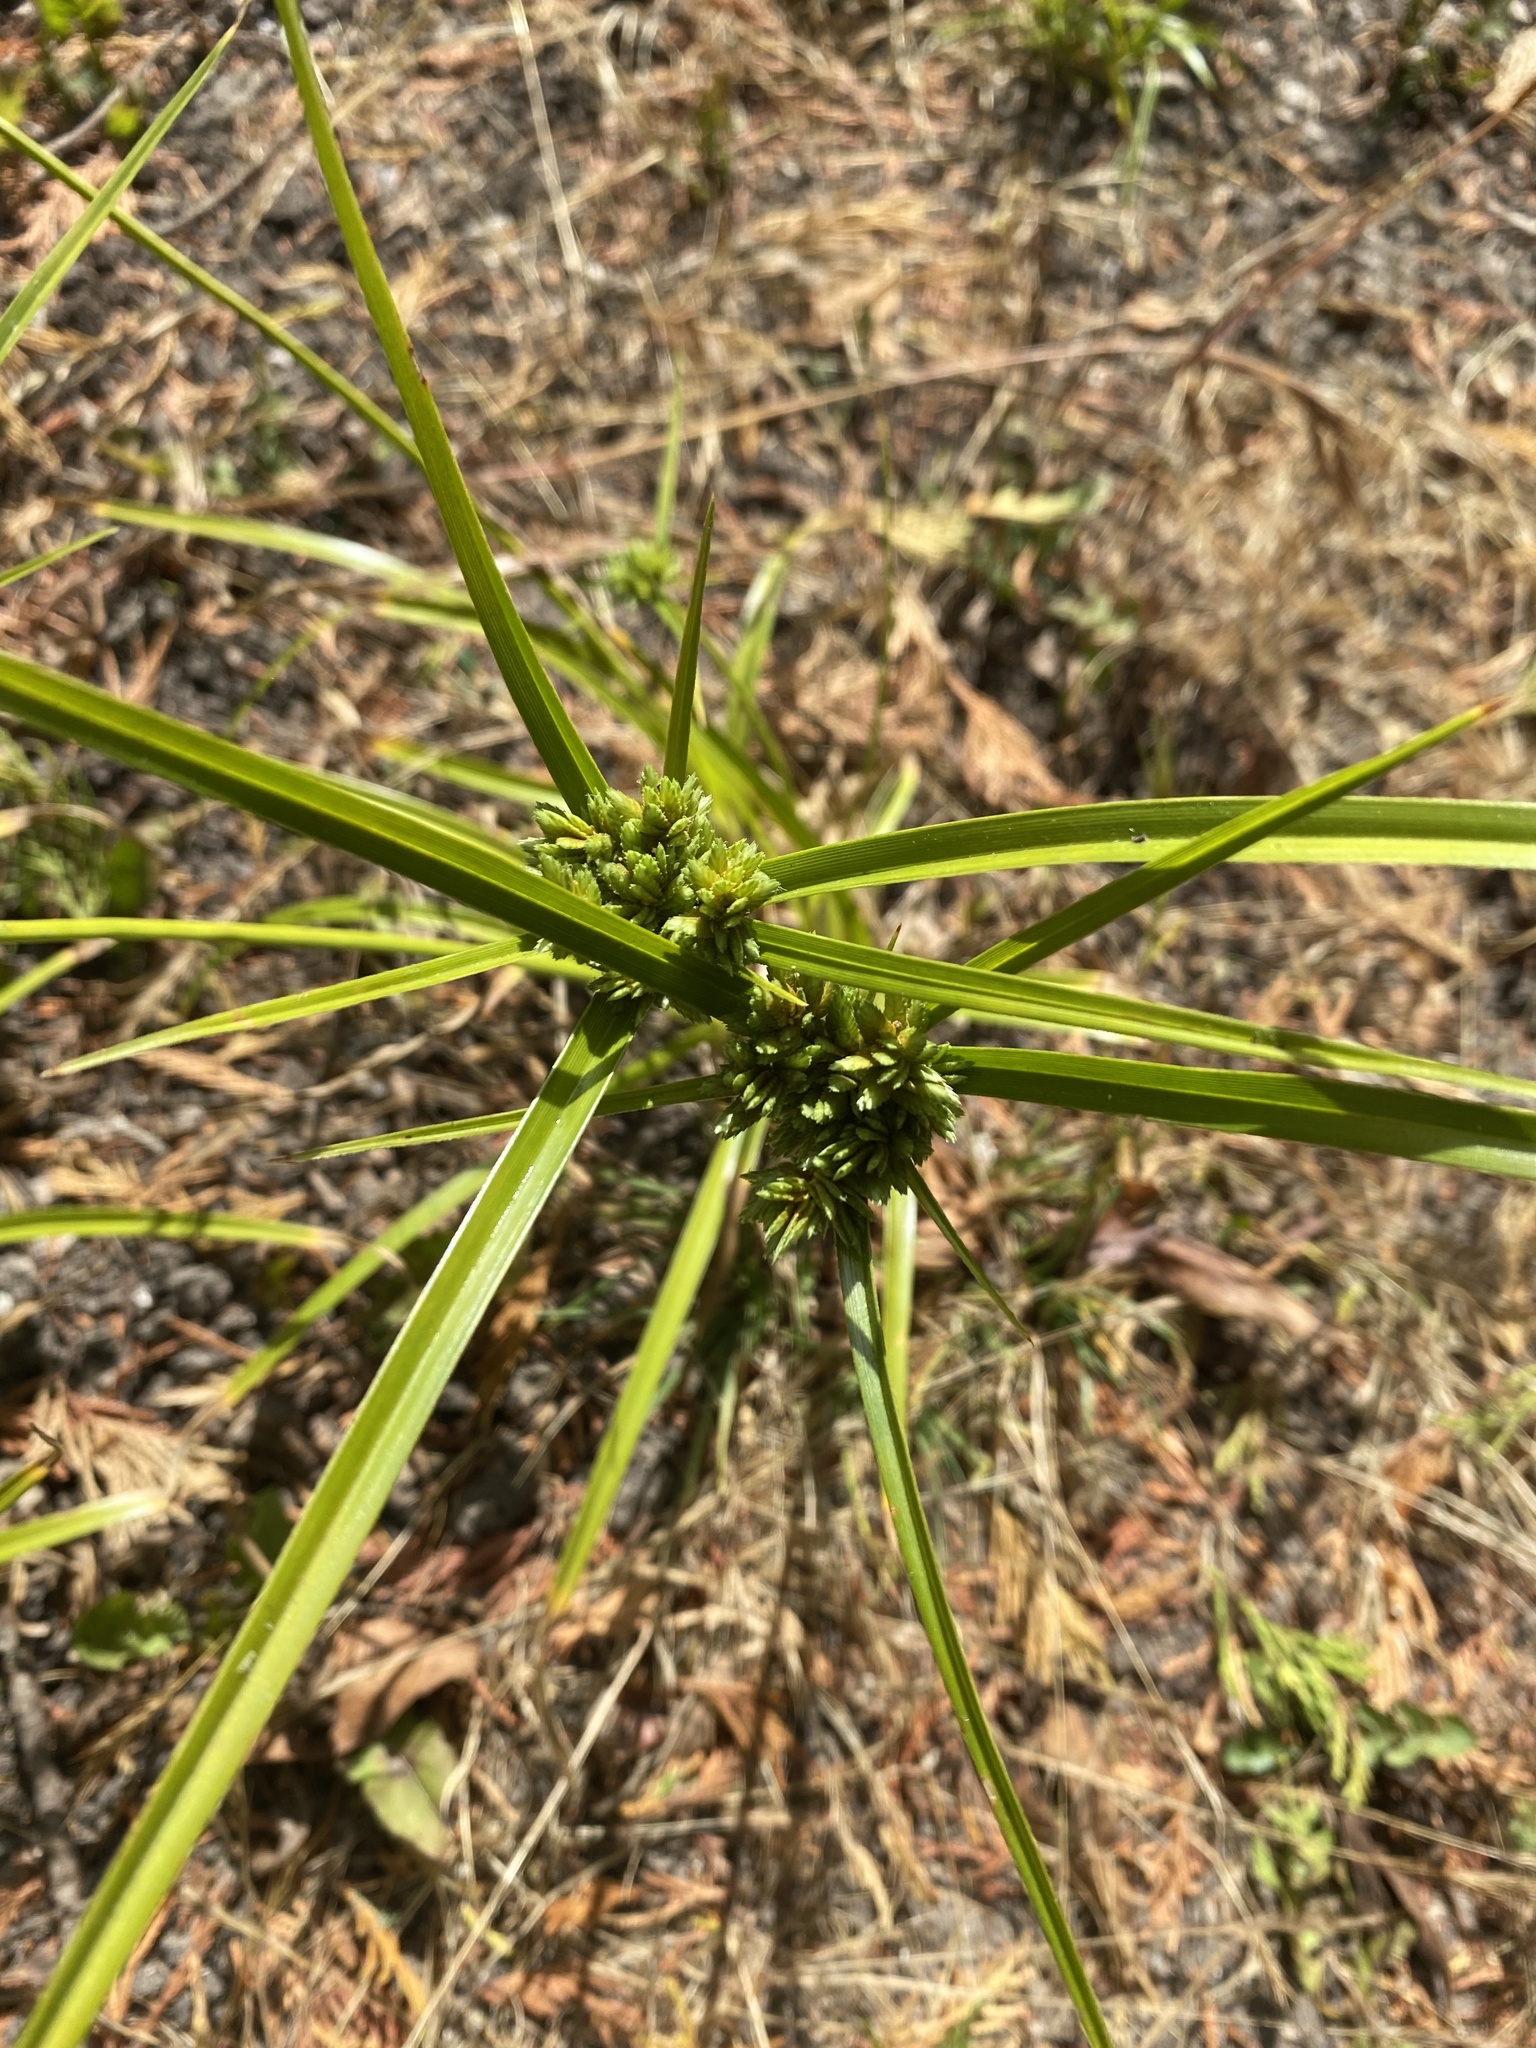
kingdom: Plantae
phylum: Tracheophyta
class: Liliopsida
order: Poales
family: Cyperaceae
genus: Cyperus
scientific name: Cyperus eragrostis
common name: Tall flatsedge
